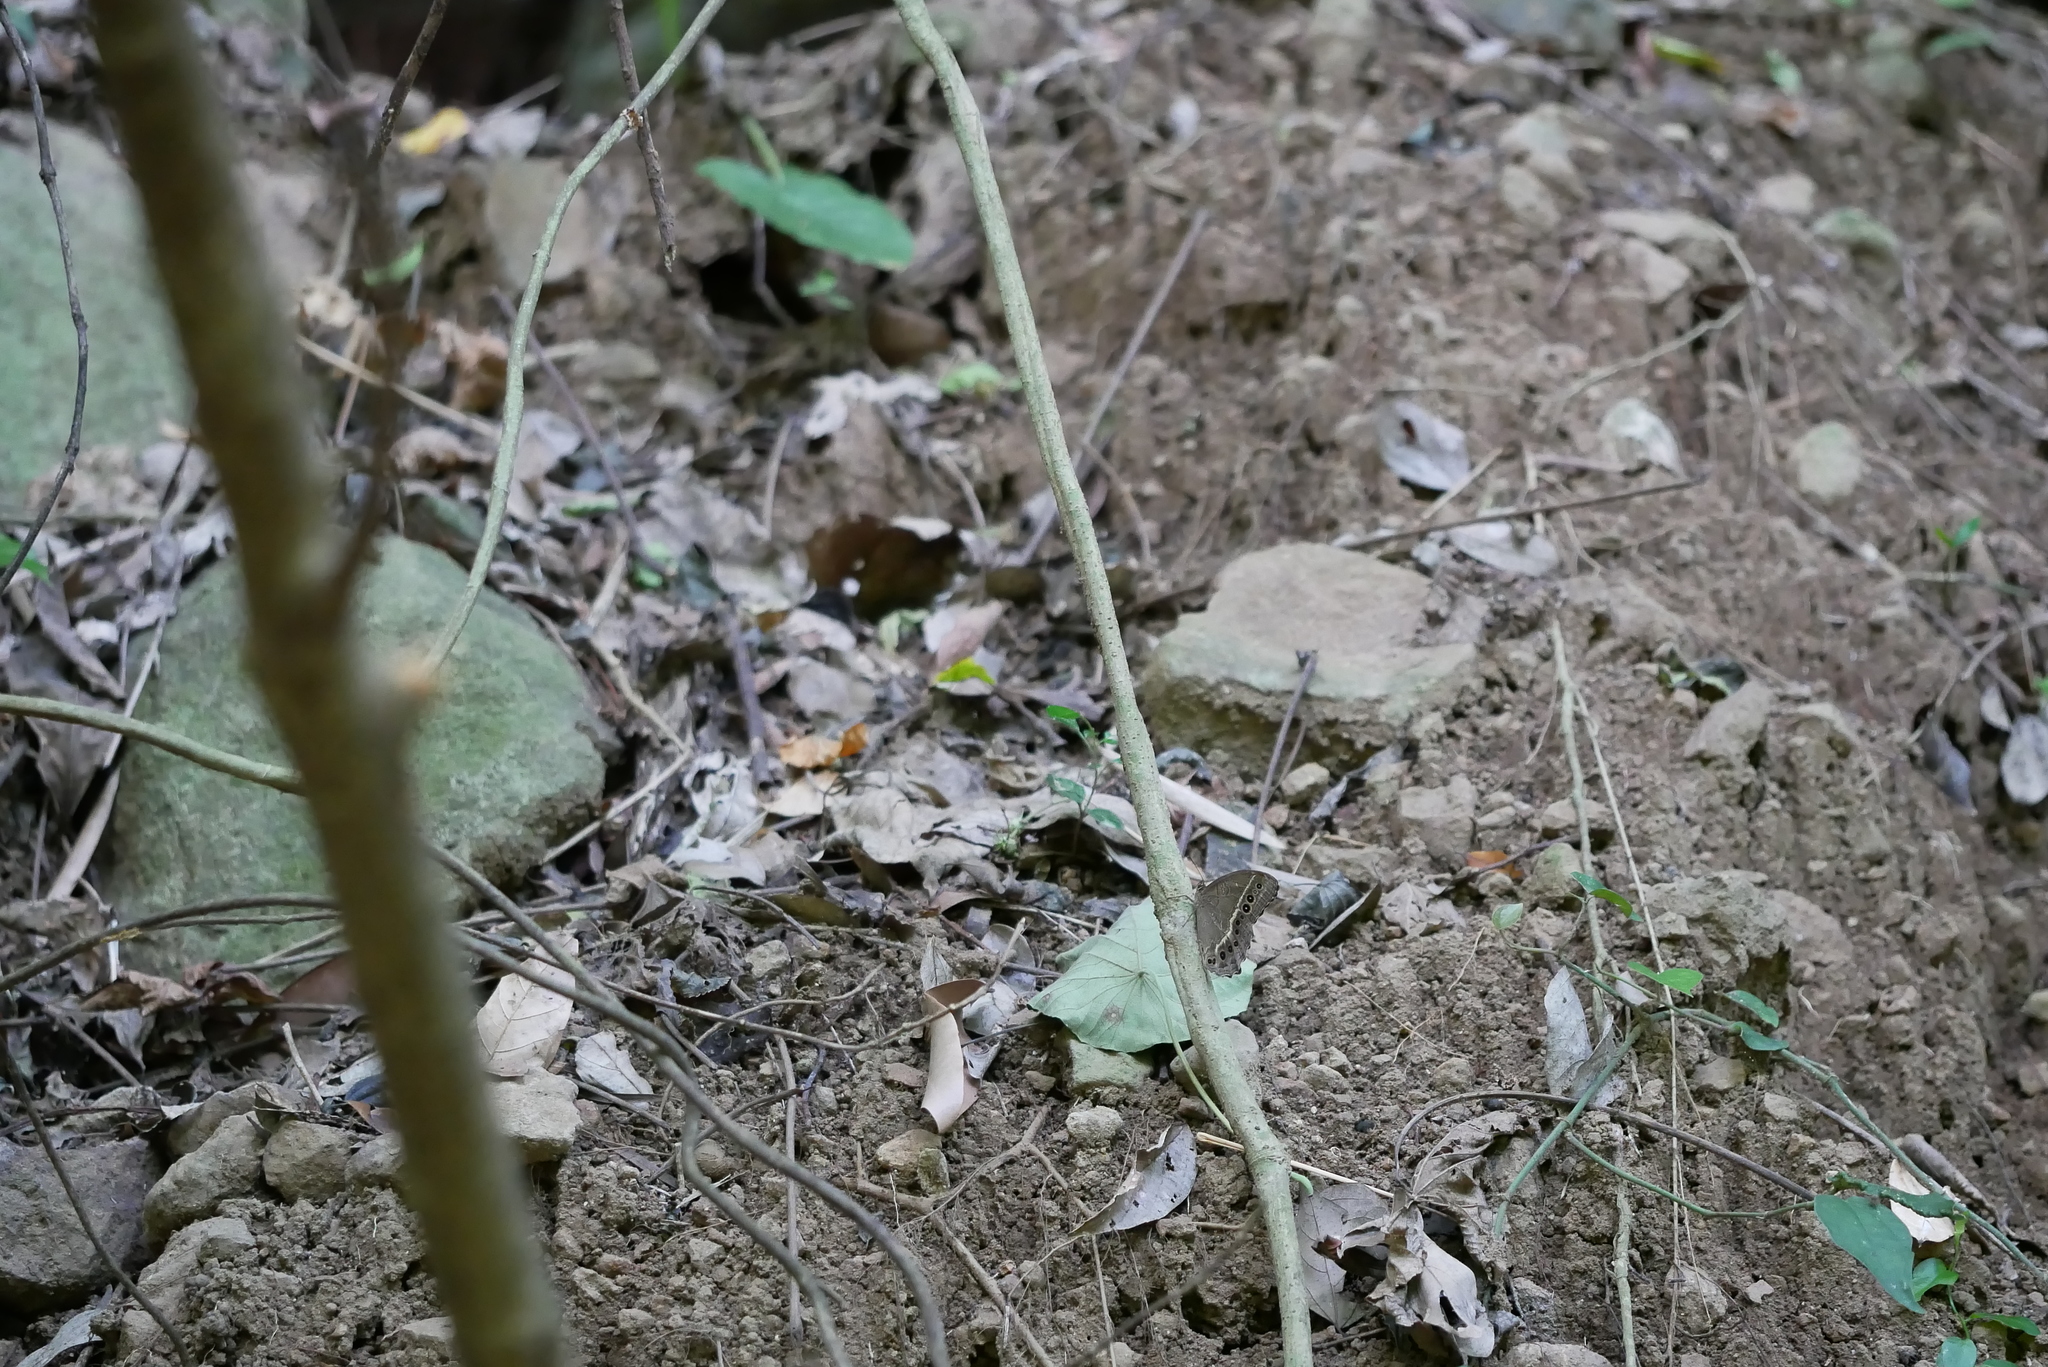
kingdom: Animalia
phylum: Arthropoda
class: Insecta
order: Lepidoptera
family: Nymphalidae
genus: Neope
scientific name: Neope muirheadii
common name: Black-spotted labyrinth
